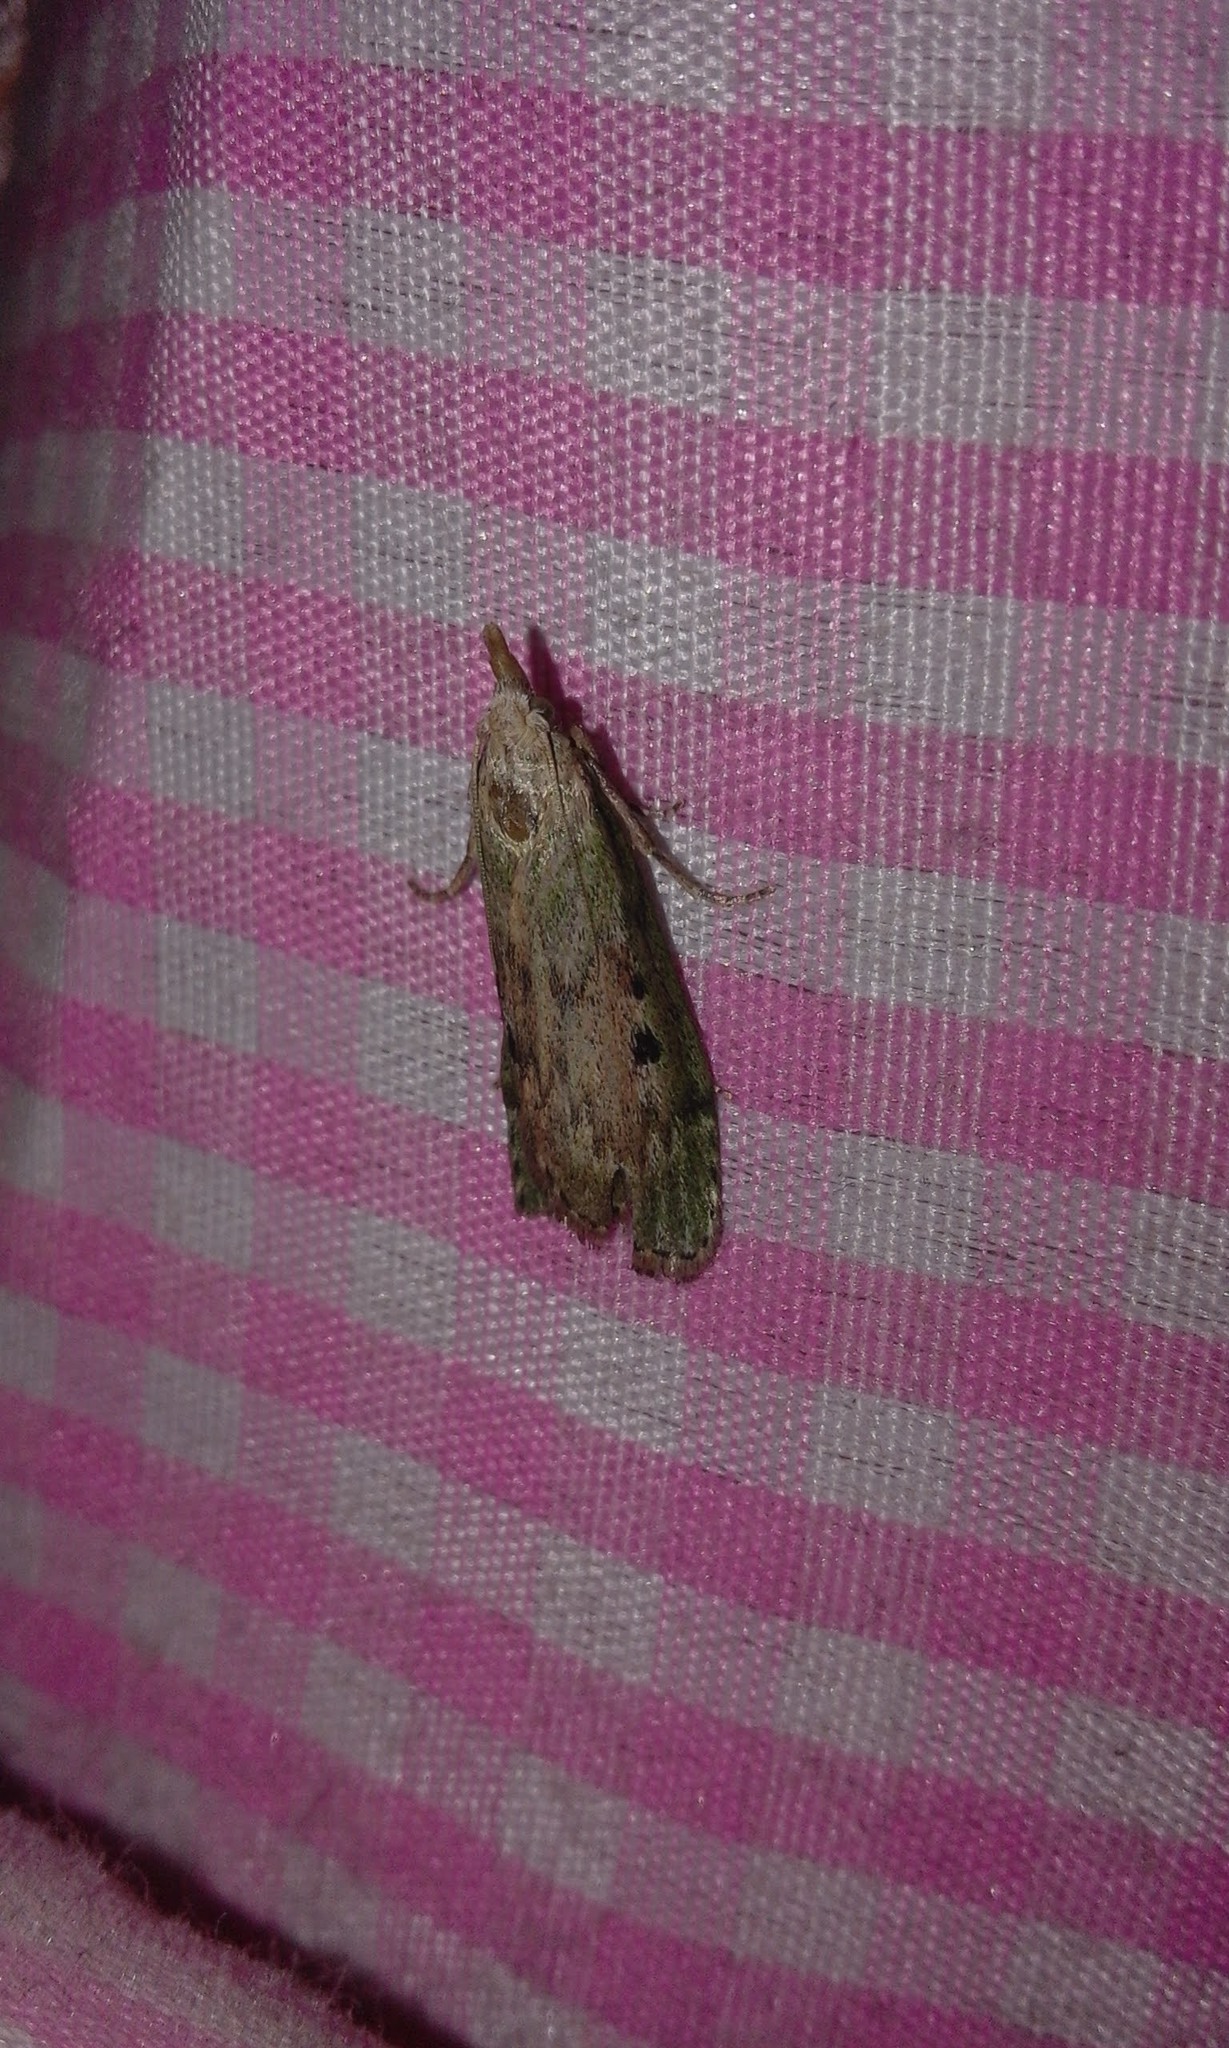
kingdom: Animalia
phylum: Arthropoda
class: Insecta
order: Lepidoptera
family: Pyralidae
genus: Aphomia
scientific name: Aphomia sociella
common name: Bee moth
